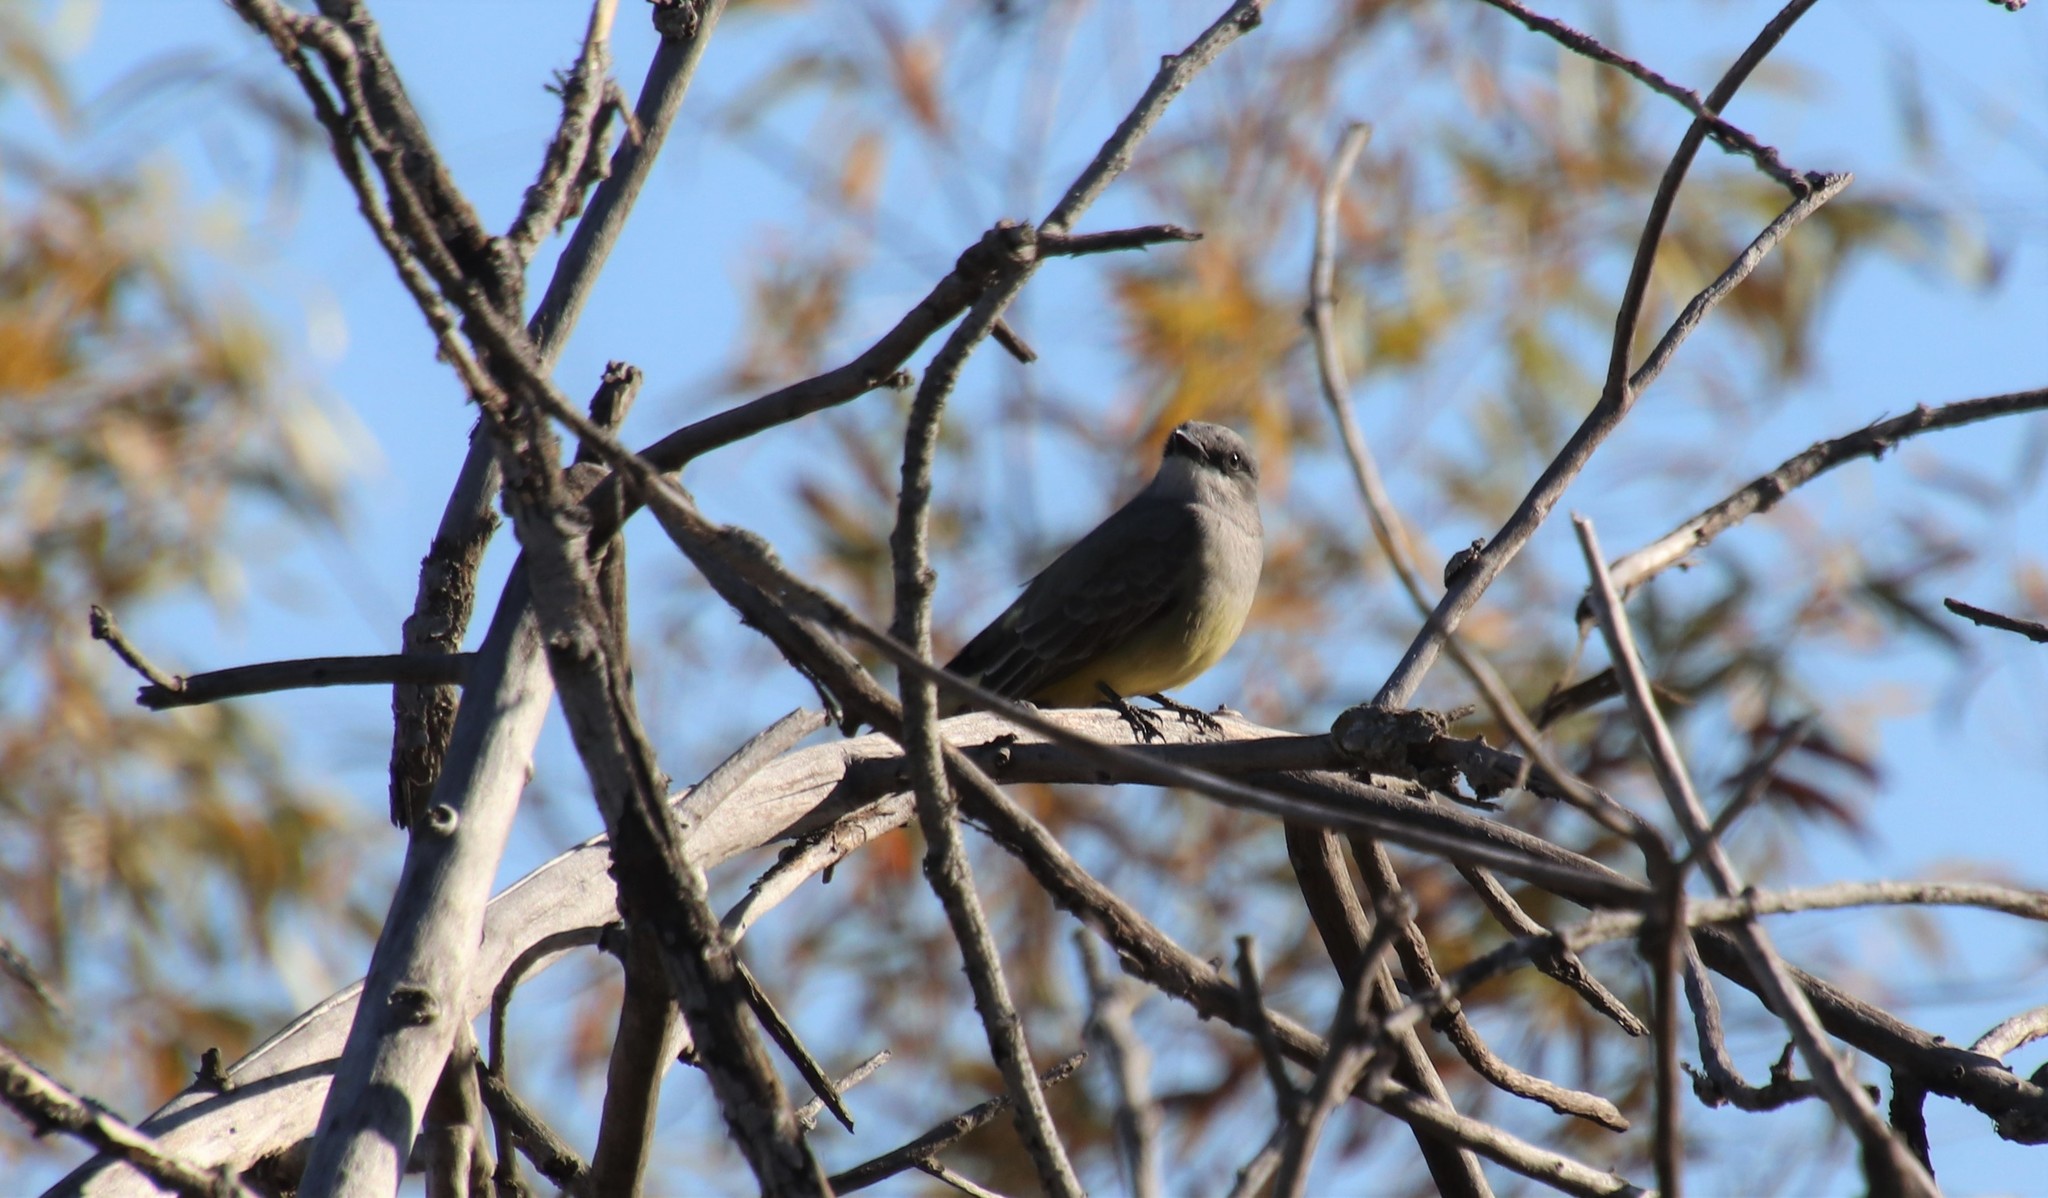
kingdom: Animalia
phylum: Chordata
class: Aves
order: Passeriformes
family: Tyrannidae
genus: Tyrannus
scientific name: Tyrannus vociferans
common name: Cassin's kingbird
